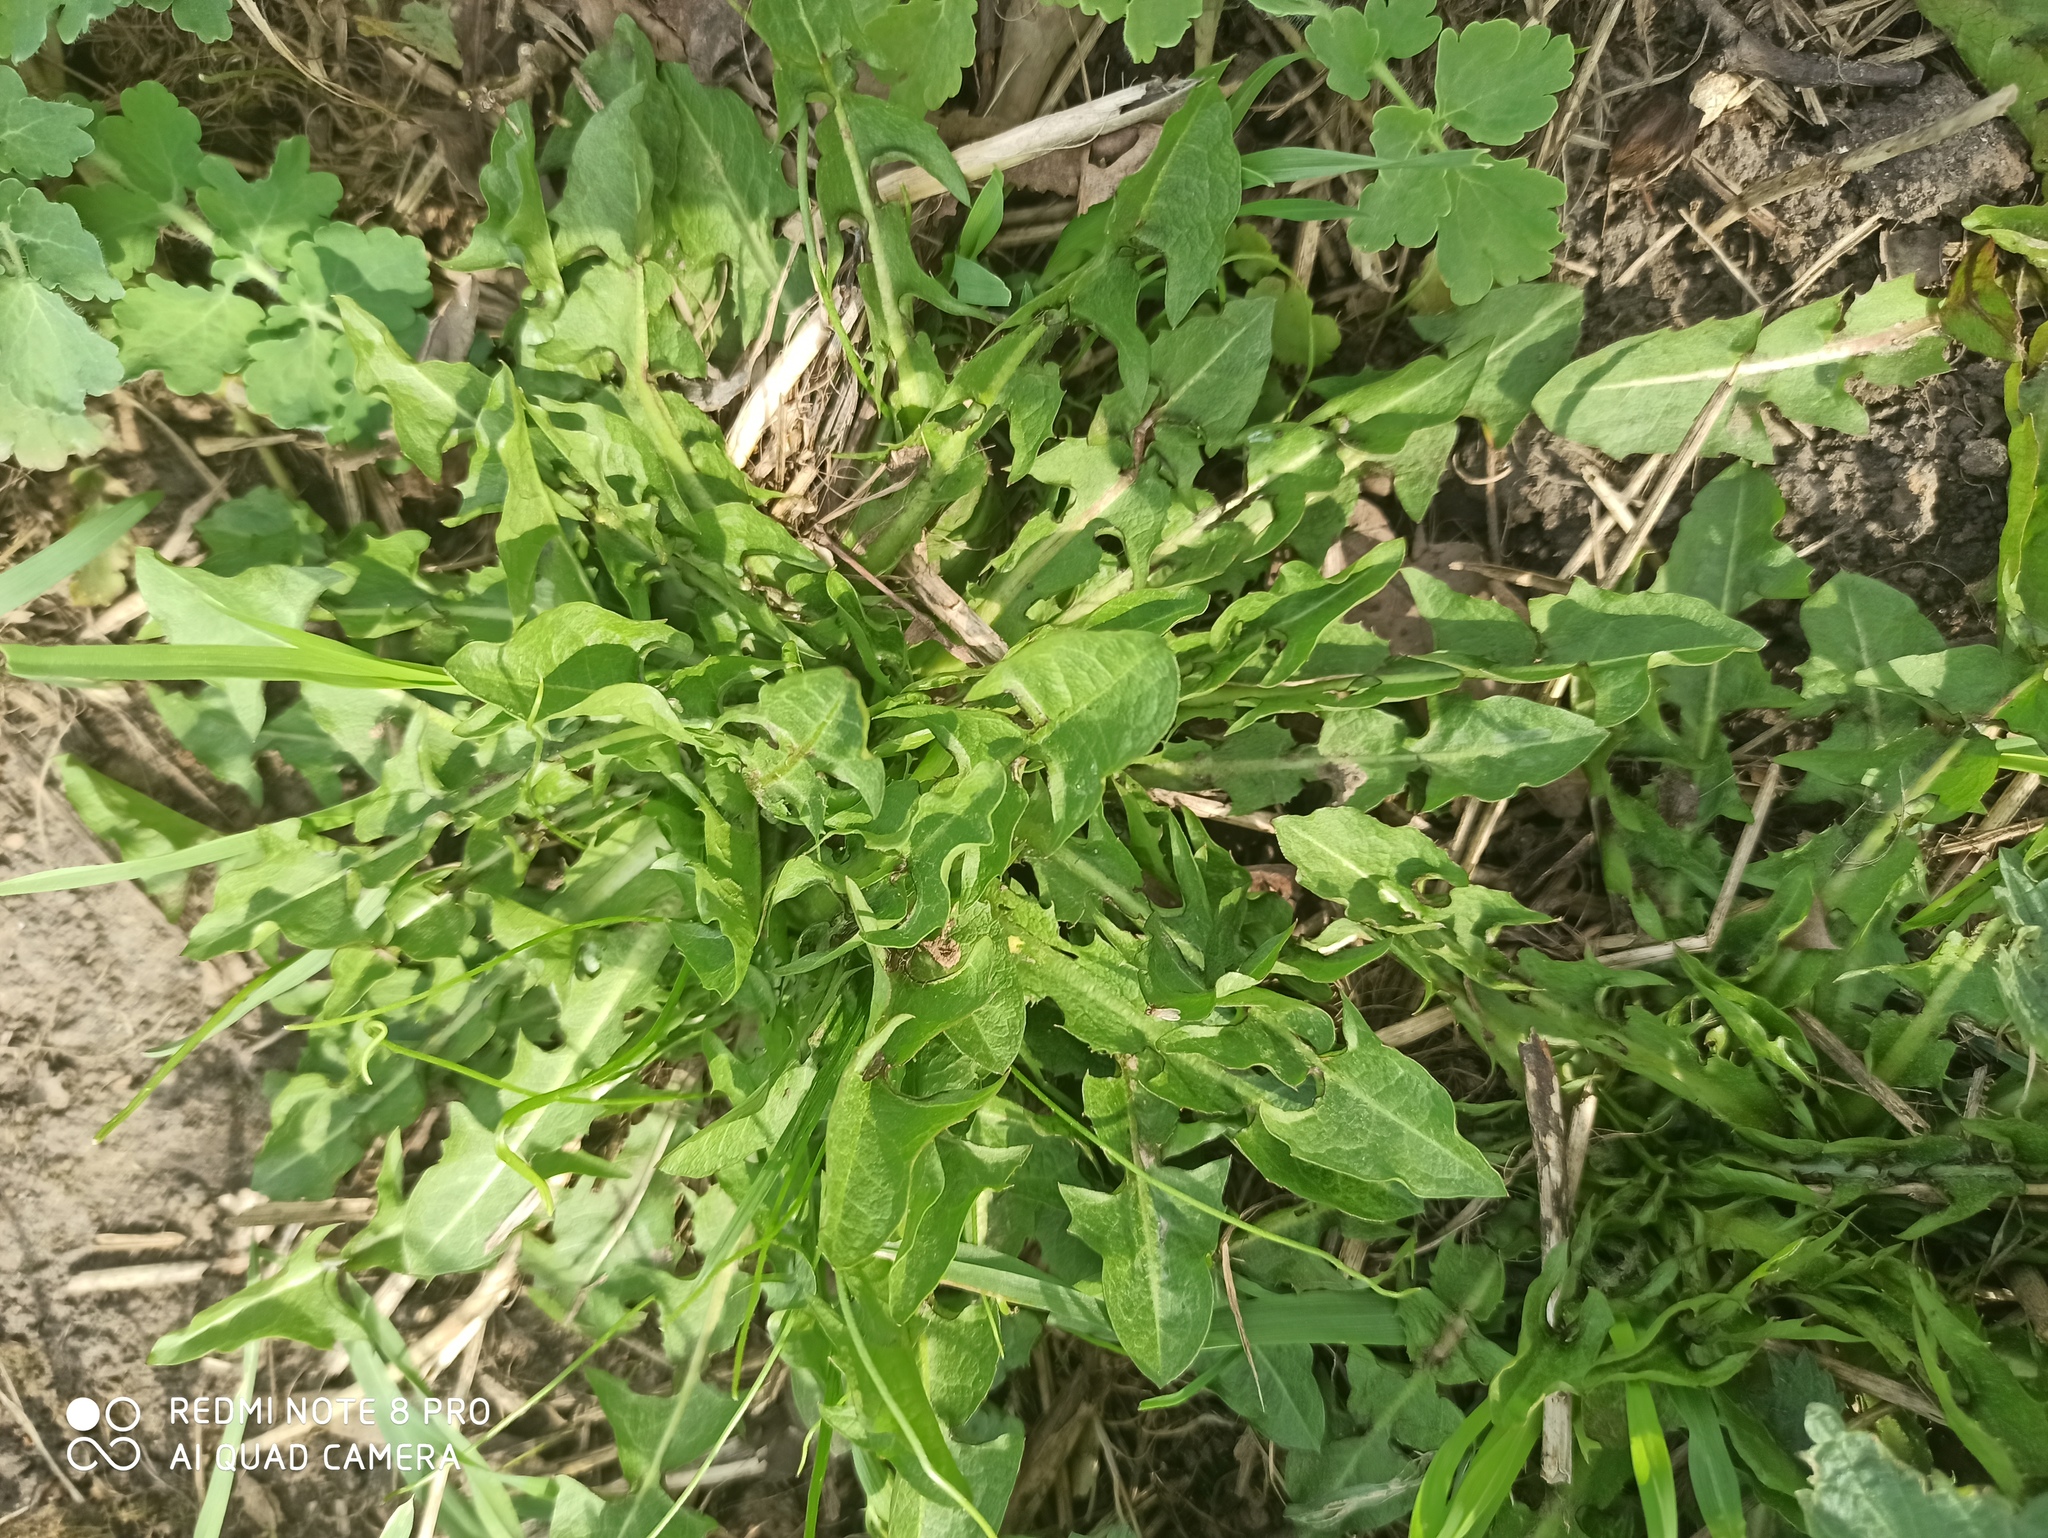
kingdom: Plantae
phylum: Tracheophyta
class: Magnoliopsida
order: Asterales
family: Asteraceae
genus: Taraxacum
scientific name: Taraxacum officinale
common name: Common dandelion
